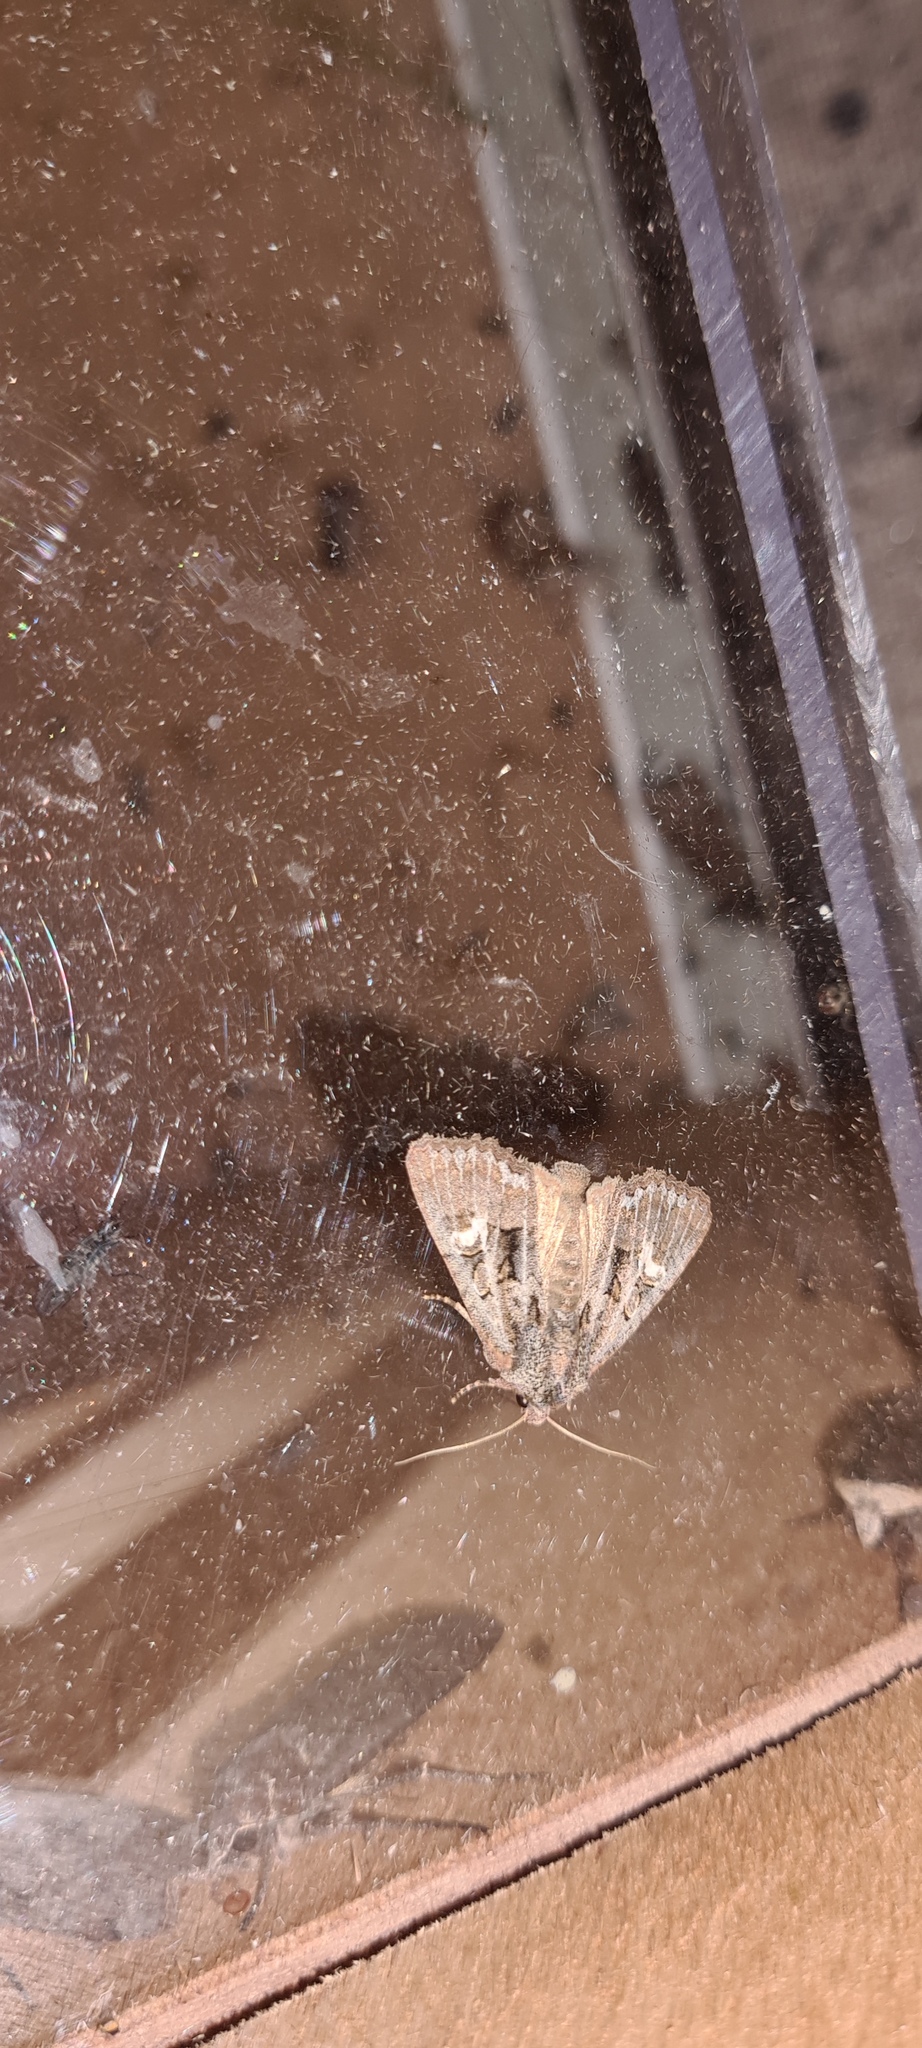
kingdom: Animalia
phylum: Arthropoda
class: Insecta
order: Lepidoptera
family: Noctuidae
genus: Mesapamea
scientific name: Mesapamea
